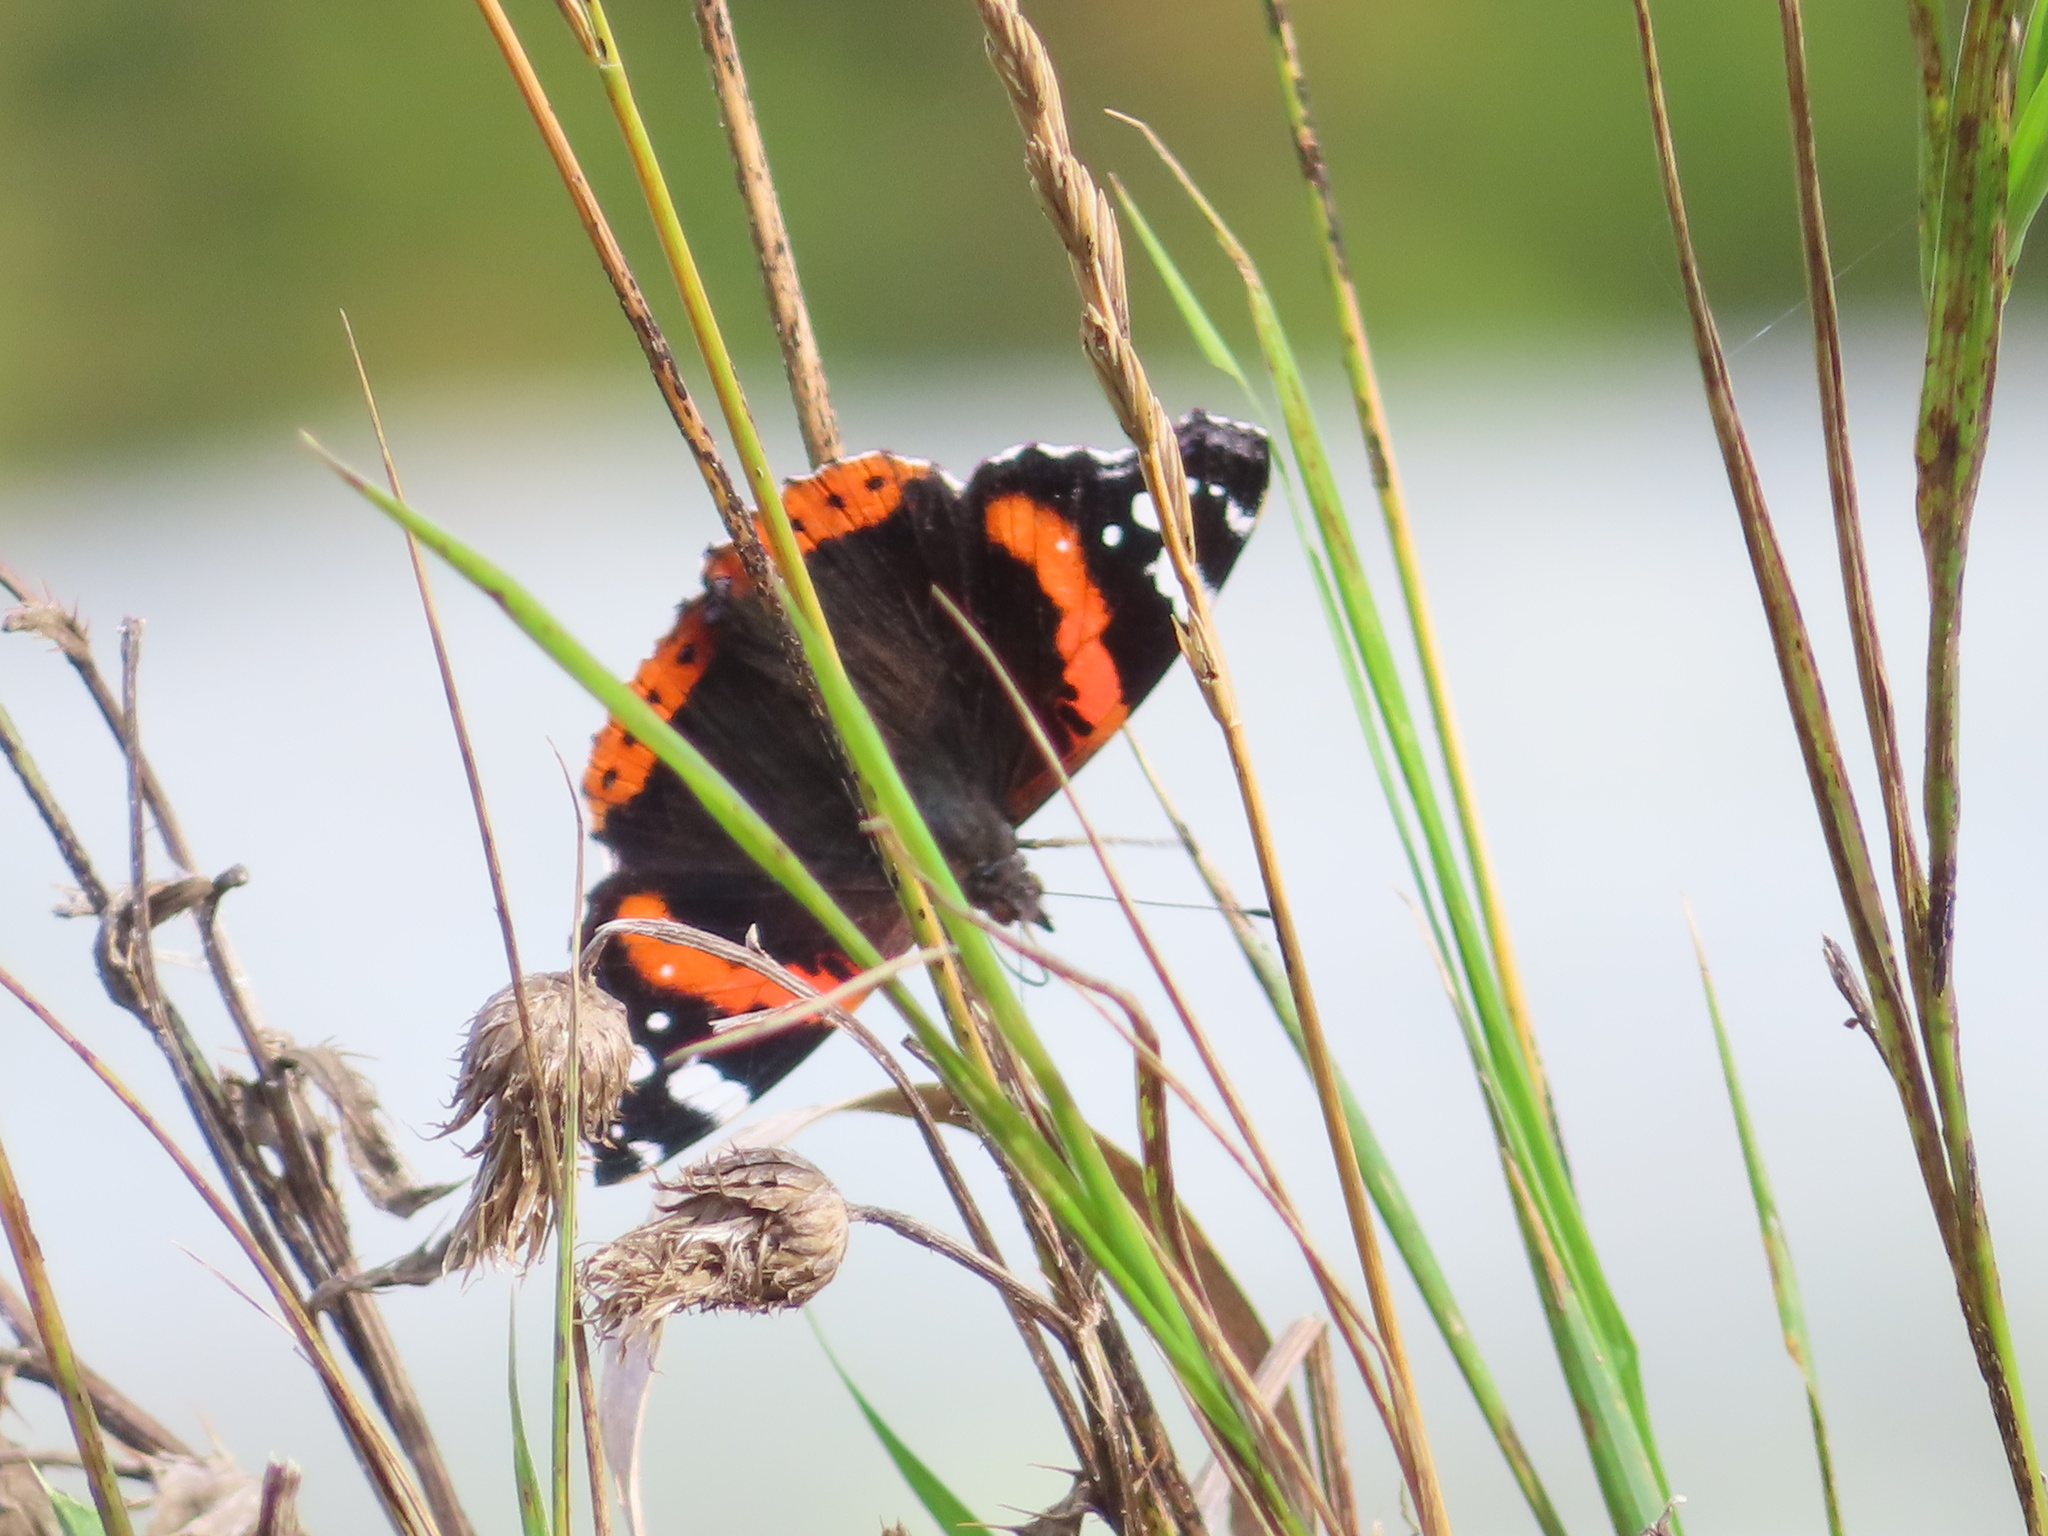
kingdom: Animalia
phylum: Arthropoda
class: Insecta
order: Lepidoptera
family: Nymphalidae
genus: Vanessa
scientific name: Vanessa atalanta
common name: Red admiral
